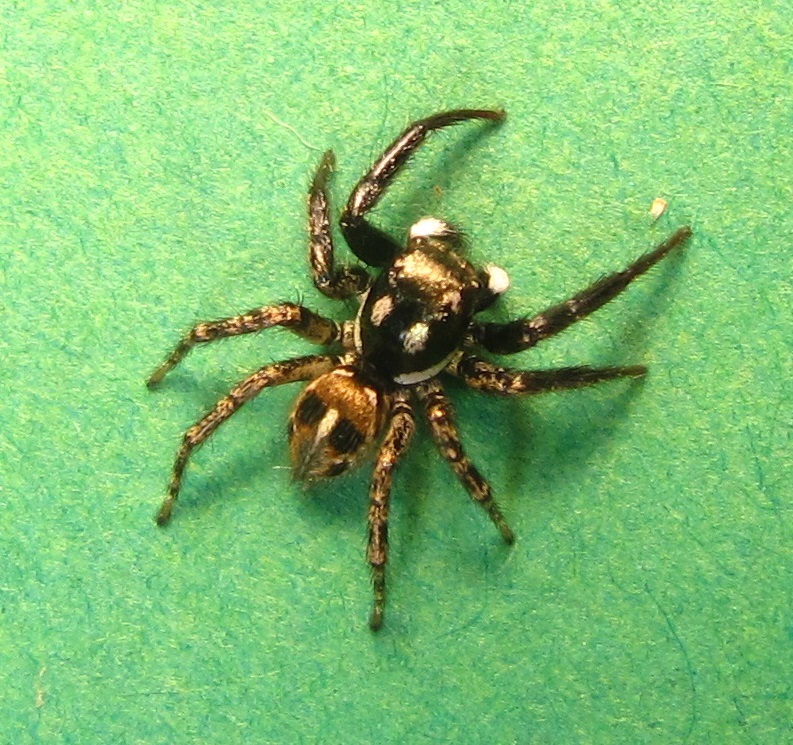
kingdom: Animalia
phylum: Arthropoda
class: Arachnida
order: Araneae
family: Salticidae
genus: Anasaitis
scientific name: Anasaitis canosa
